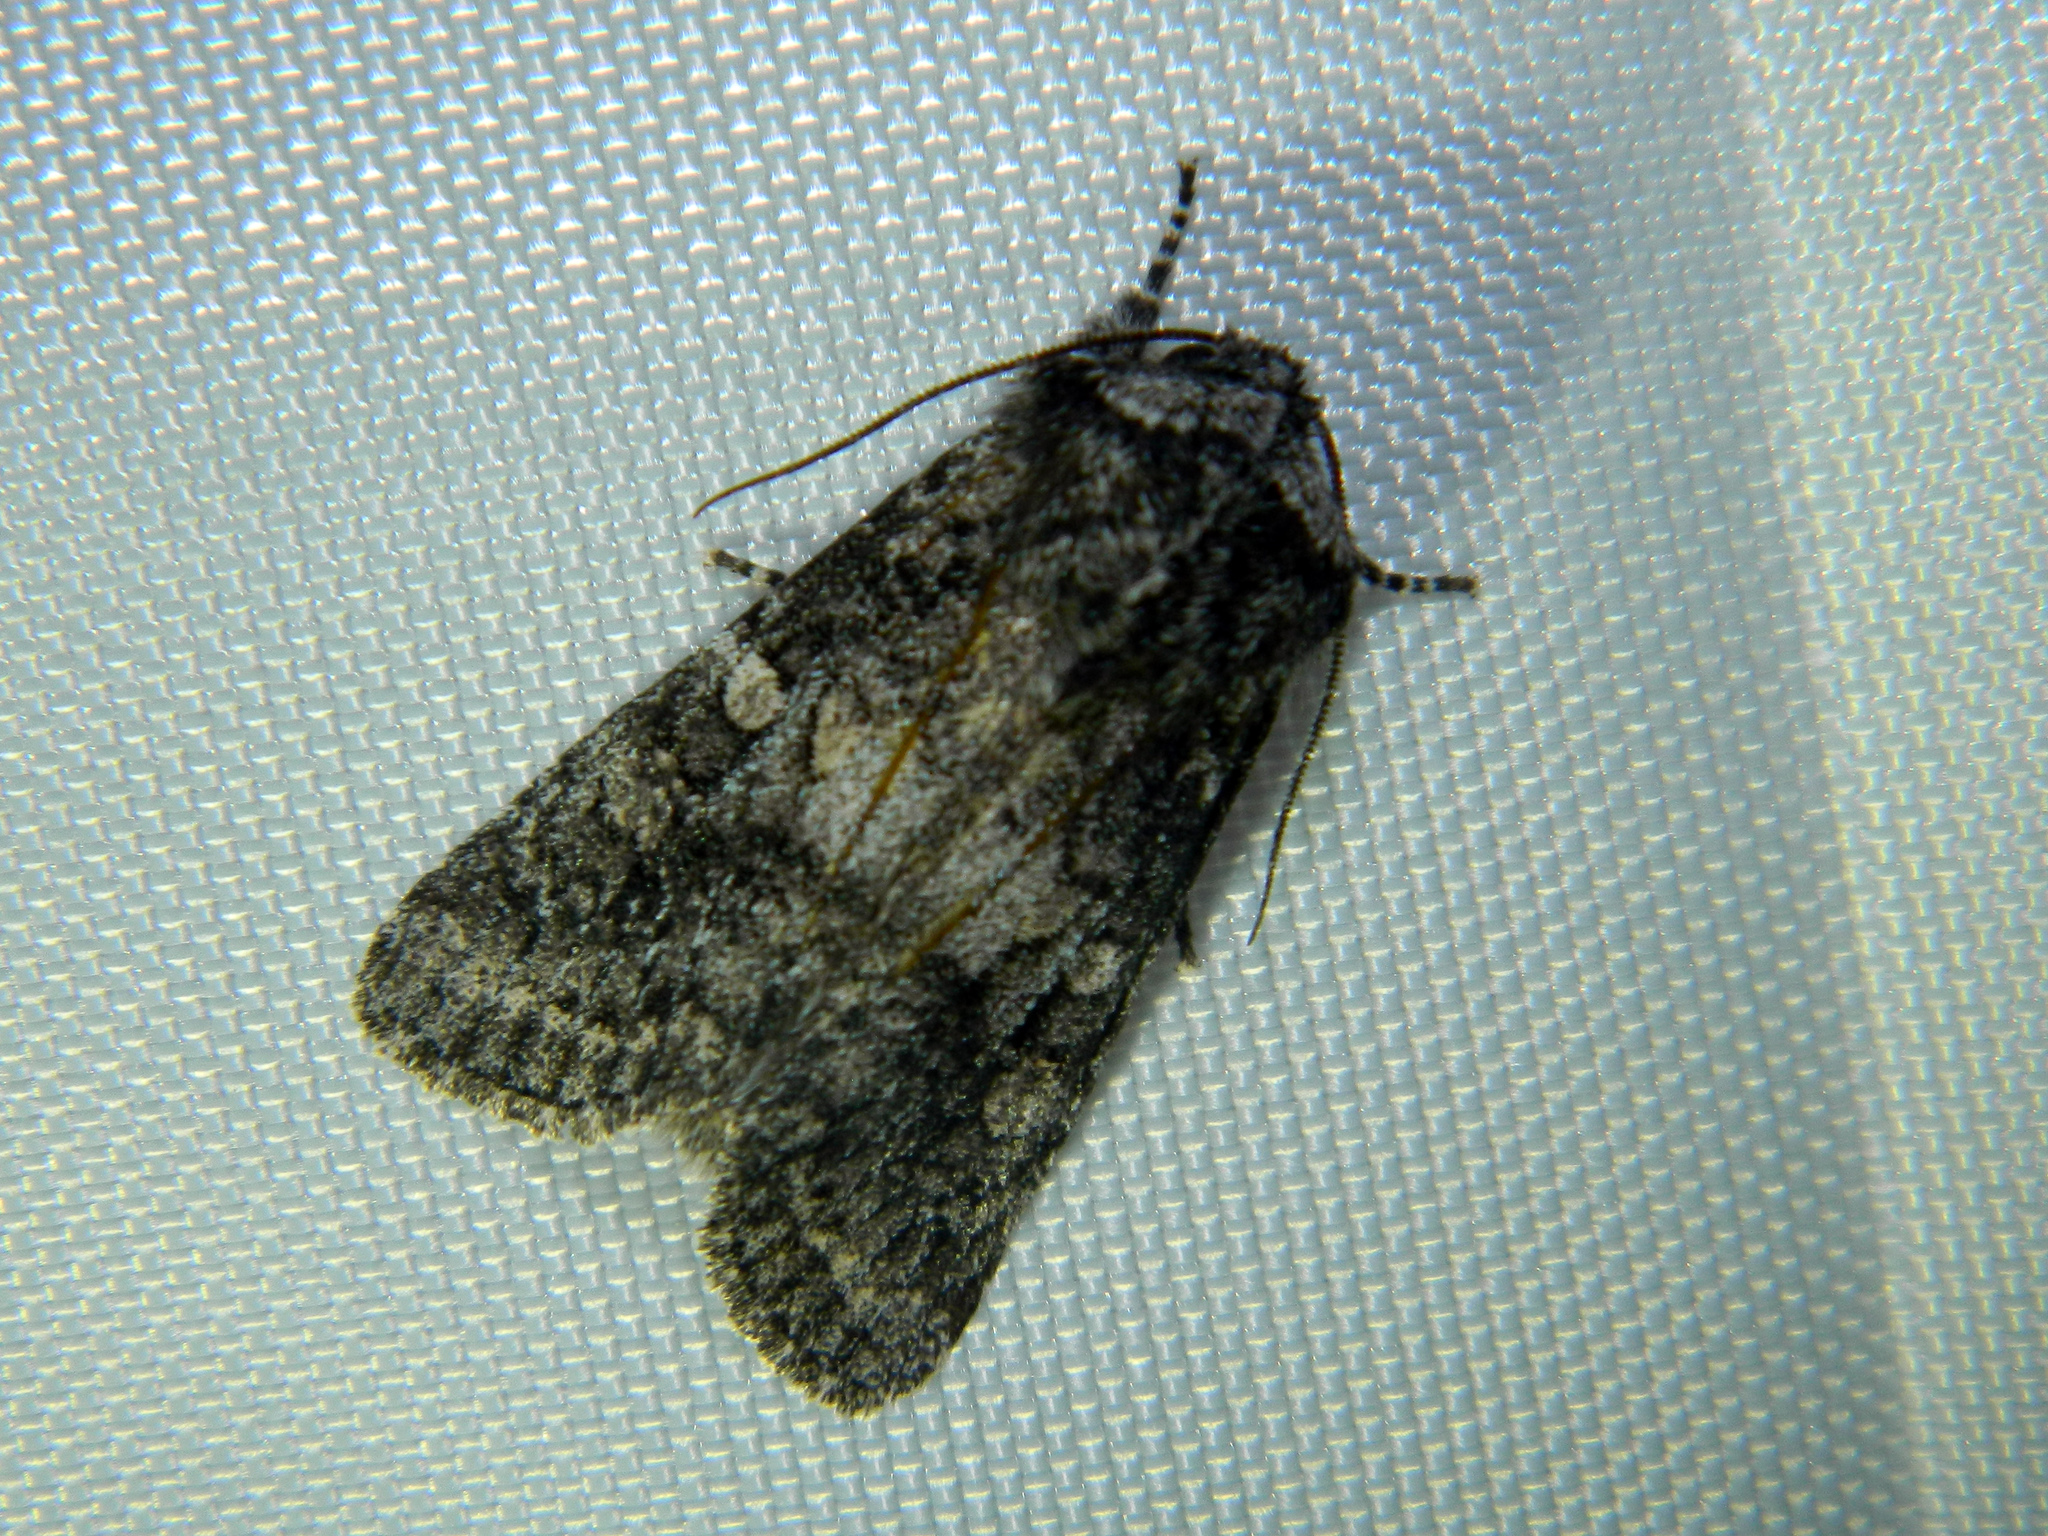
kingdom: Animalia
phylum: Arthropoda
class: Insecta
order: Lepidoptera
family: Noctuidae
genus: Egira
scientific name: Egira dolosa
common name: Lined black aspen cat.
